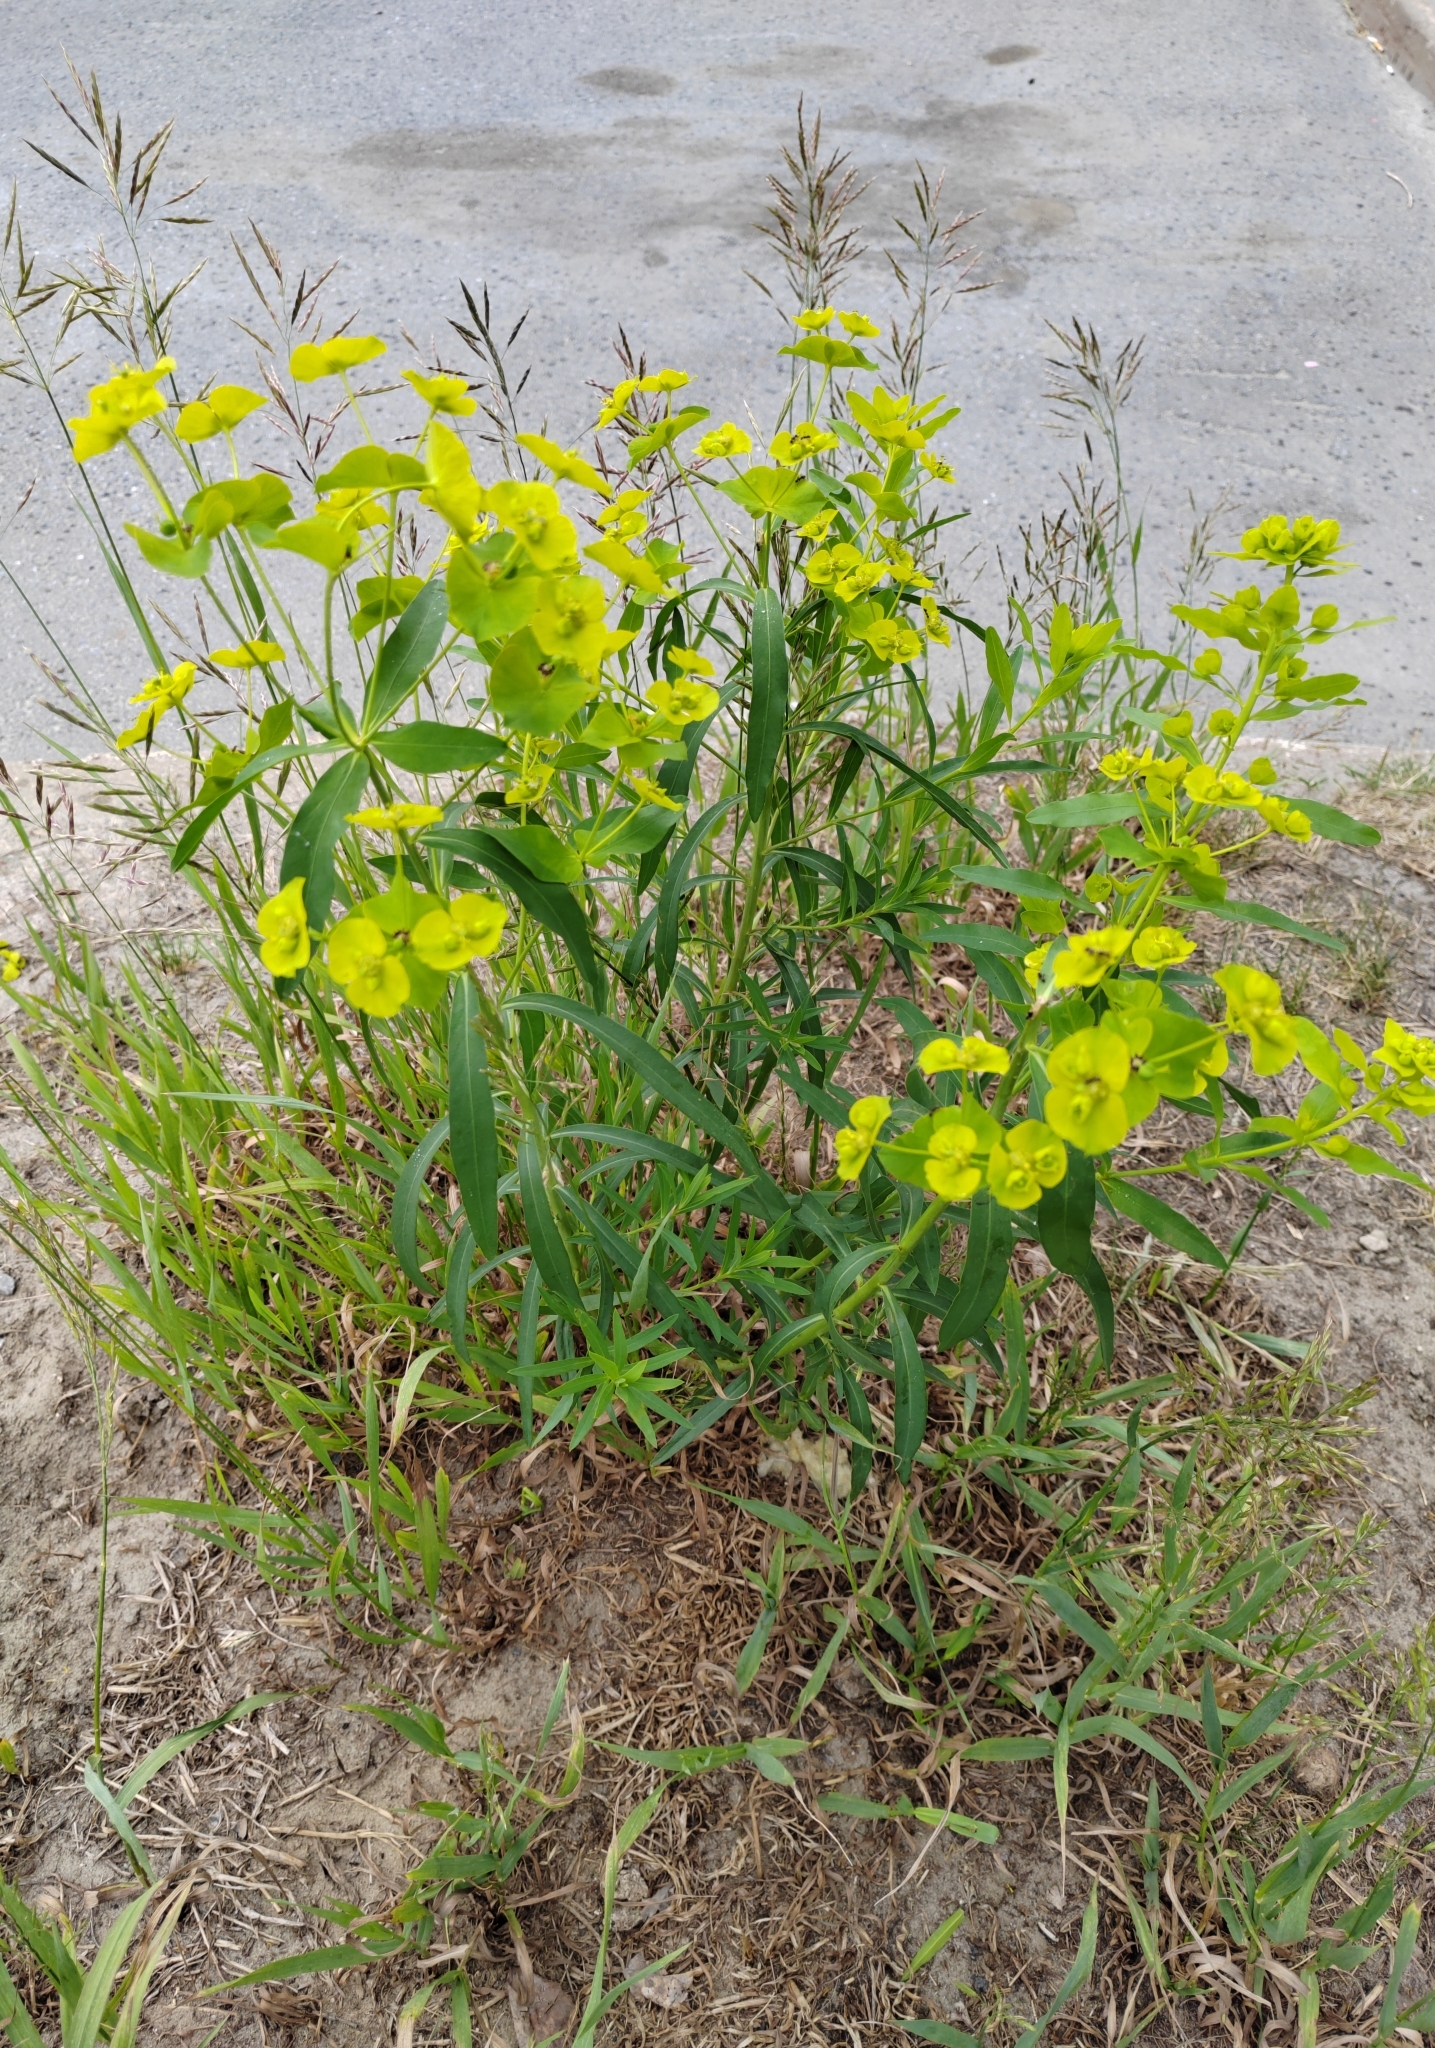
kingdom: Plantae
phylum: Tracheophyta
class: Magnoliopsida
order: Malpighiales
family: Euphorbiaceae
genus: Euphorbia
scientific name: Euphorbia virgata
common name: Leafy spurge
